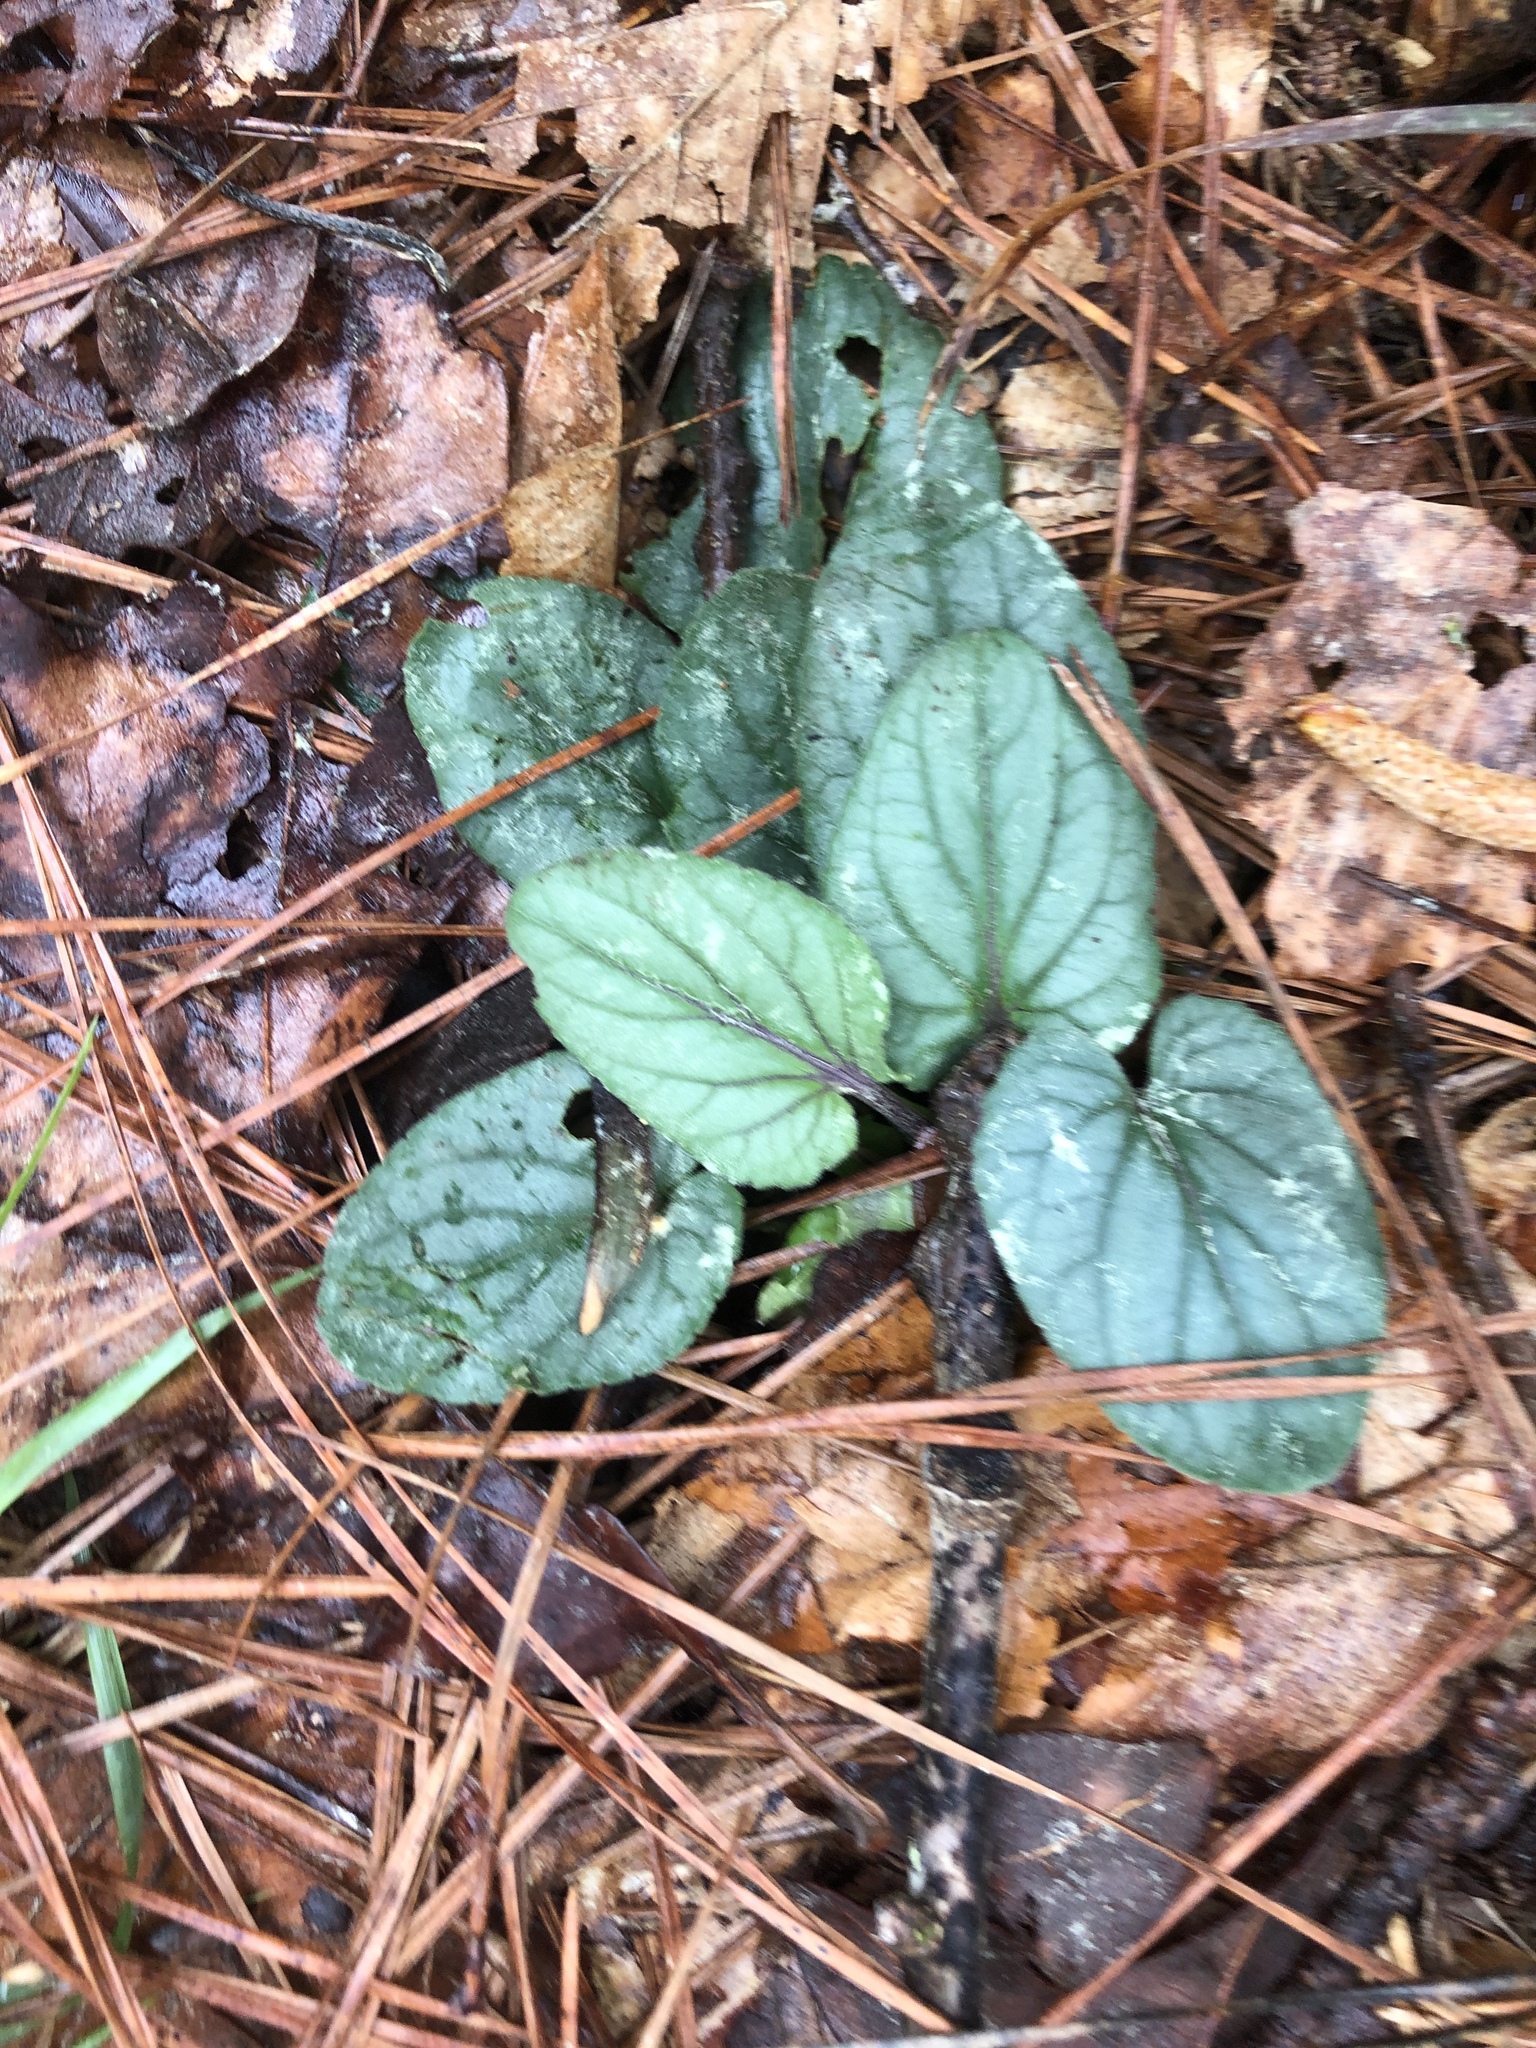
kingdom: Plantae
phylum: Tracheophyta
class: Magnoliopsida
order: Malpighiales
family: Violaceae
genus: Viola
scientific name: Viola villosa
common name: Carolina violet
